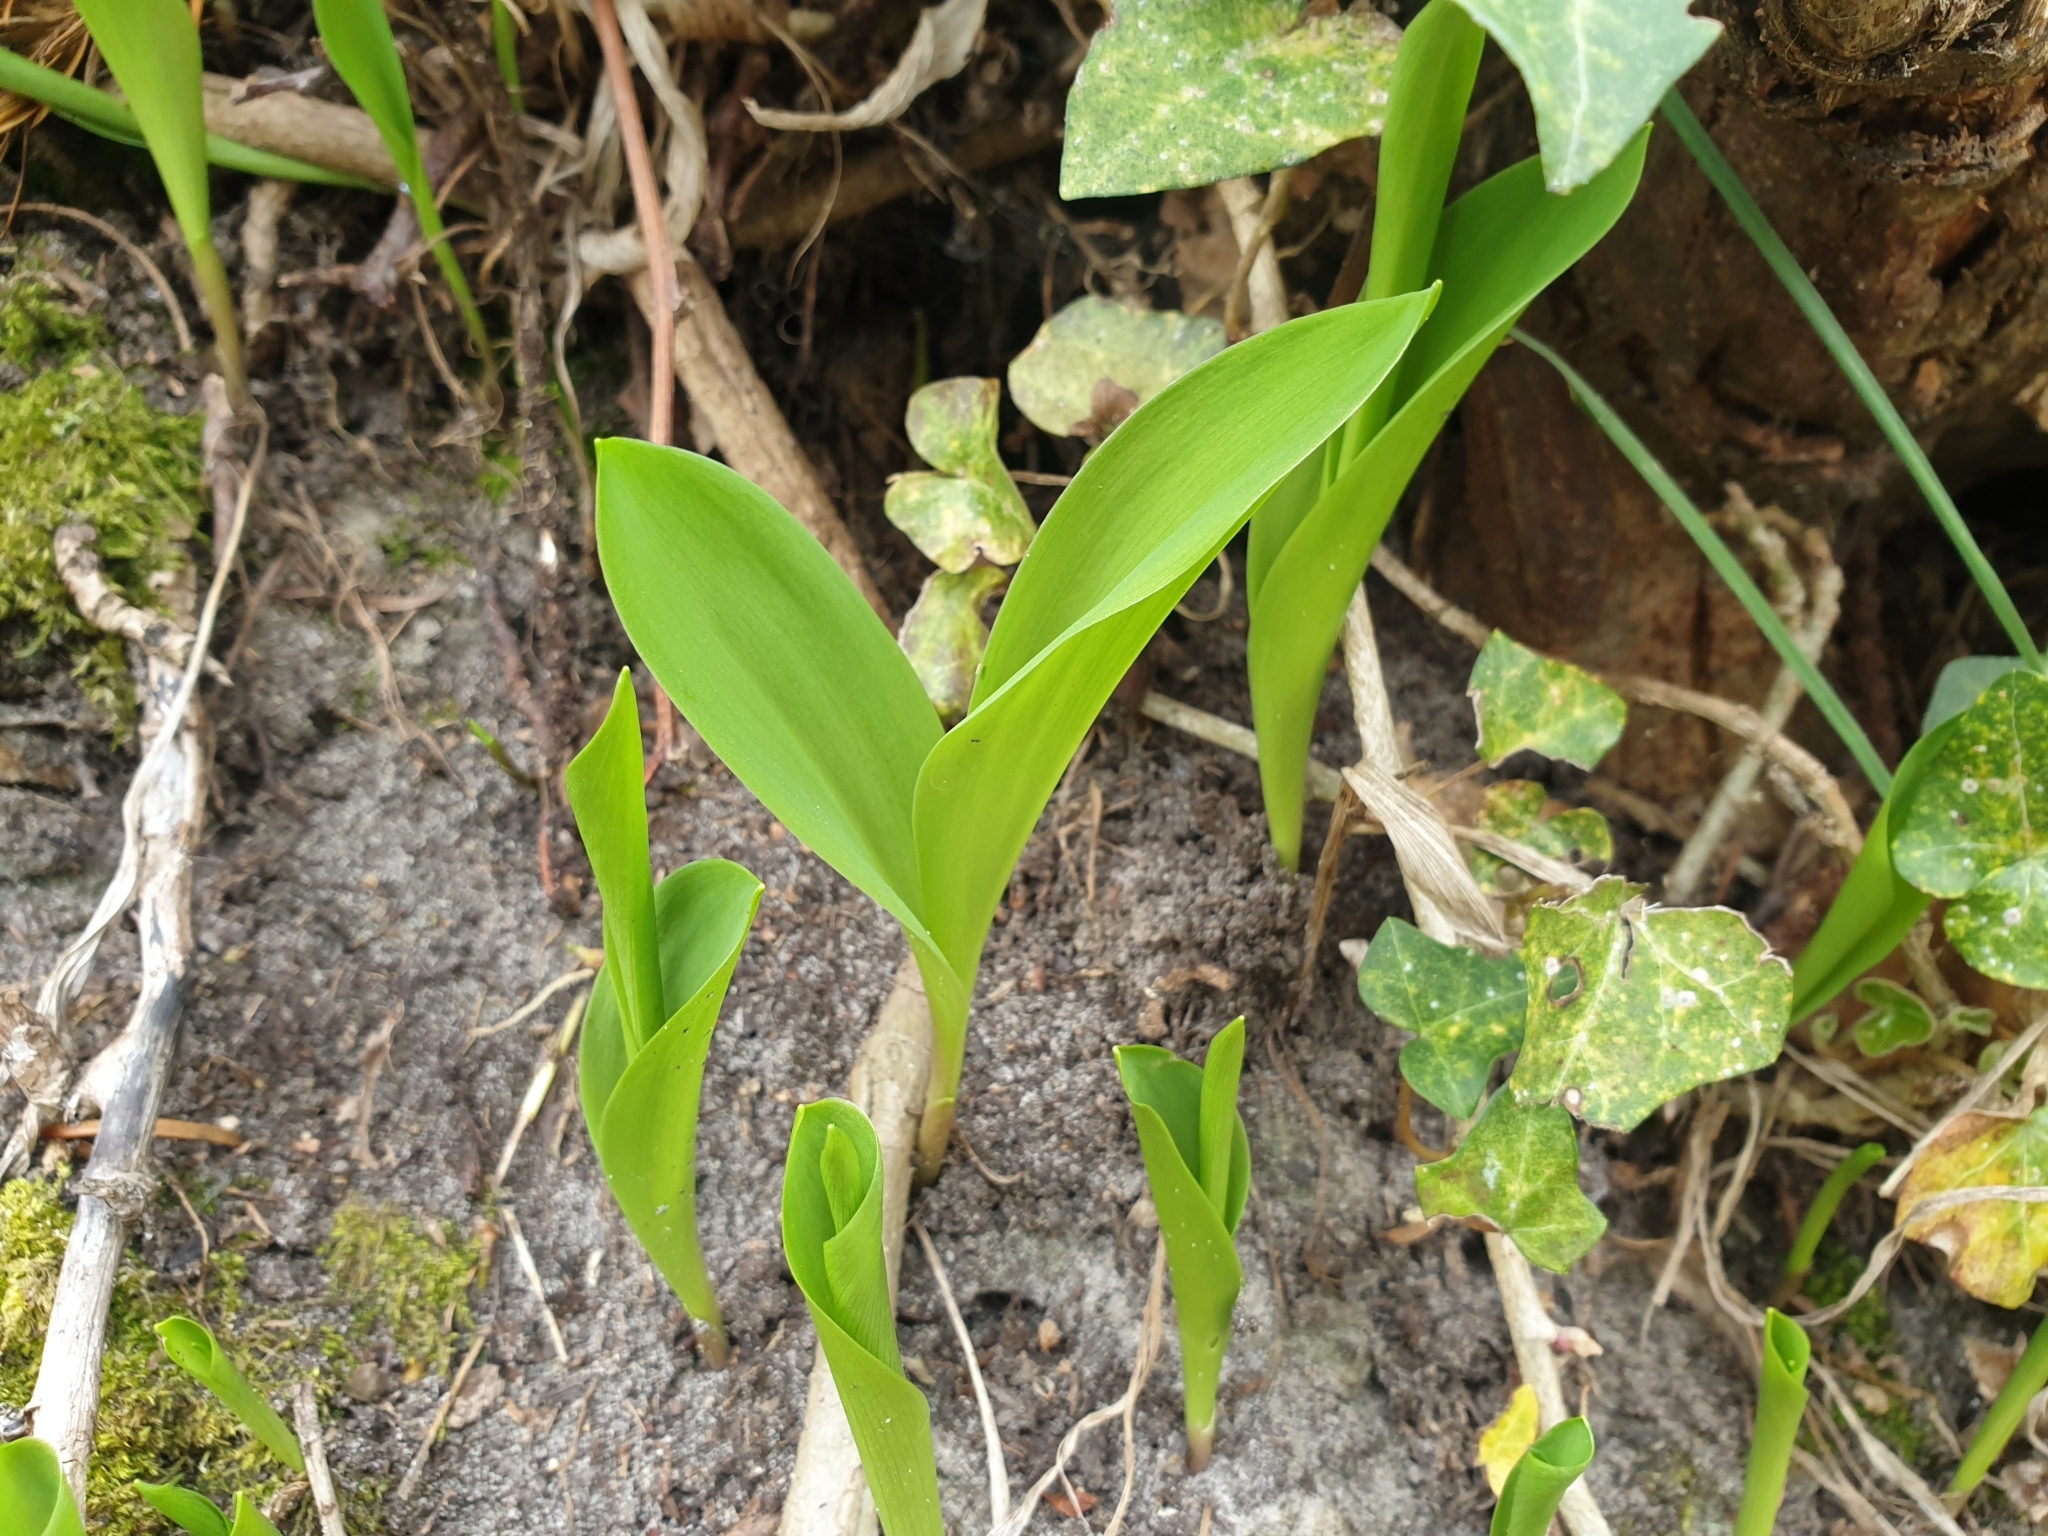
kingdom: Plantae
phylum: Tracheophyta
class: Liliopsida
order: Asparagales
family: Asparagaceae
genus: Convallaria
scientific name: Convallaria majalis
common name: Lily-of-the-valley
